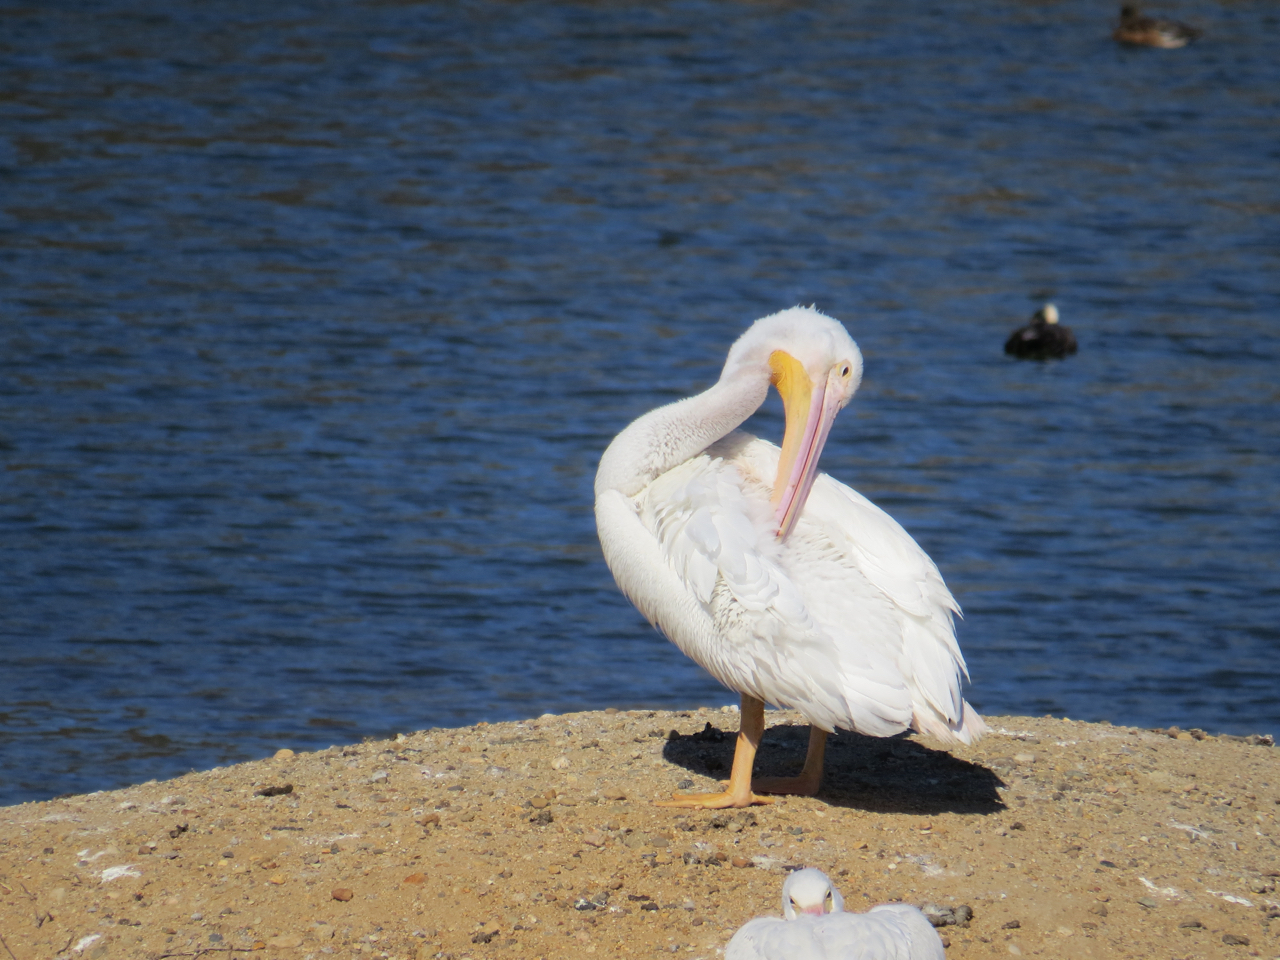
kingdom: Animalia
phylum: Chordata
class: Aves
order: Pelecaniformes
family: Pelecanidae
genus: Pelecanus
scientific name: Pelecanus erythrorhynchos
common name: American white pelican
